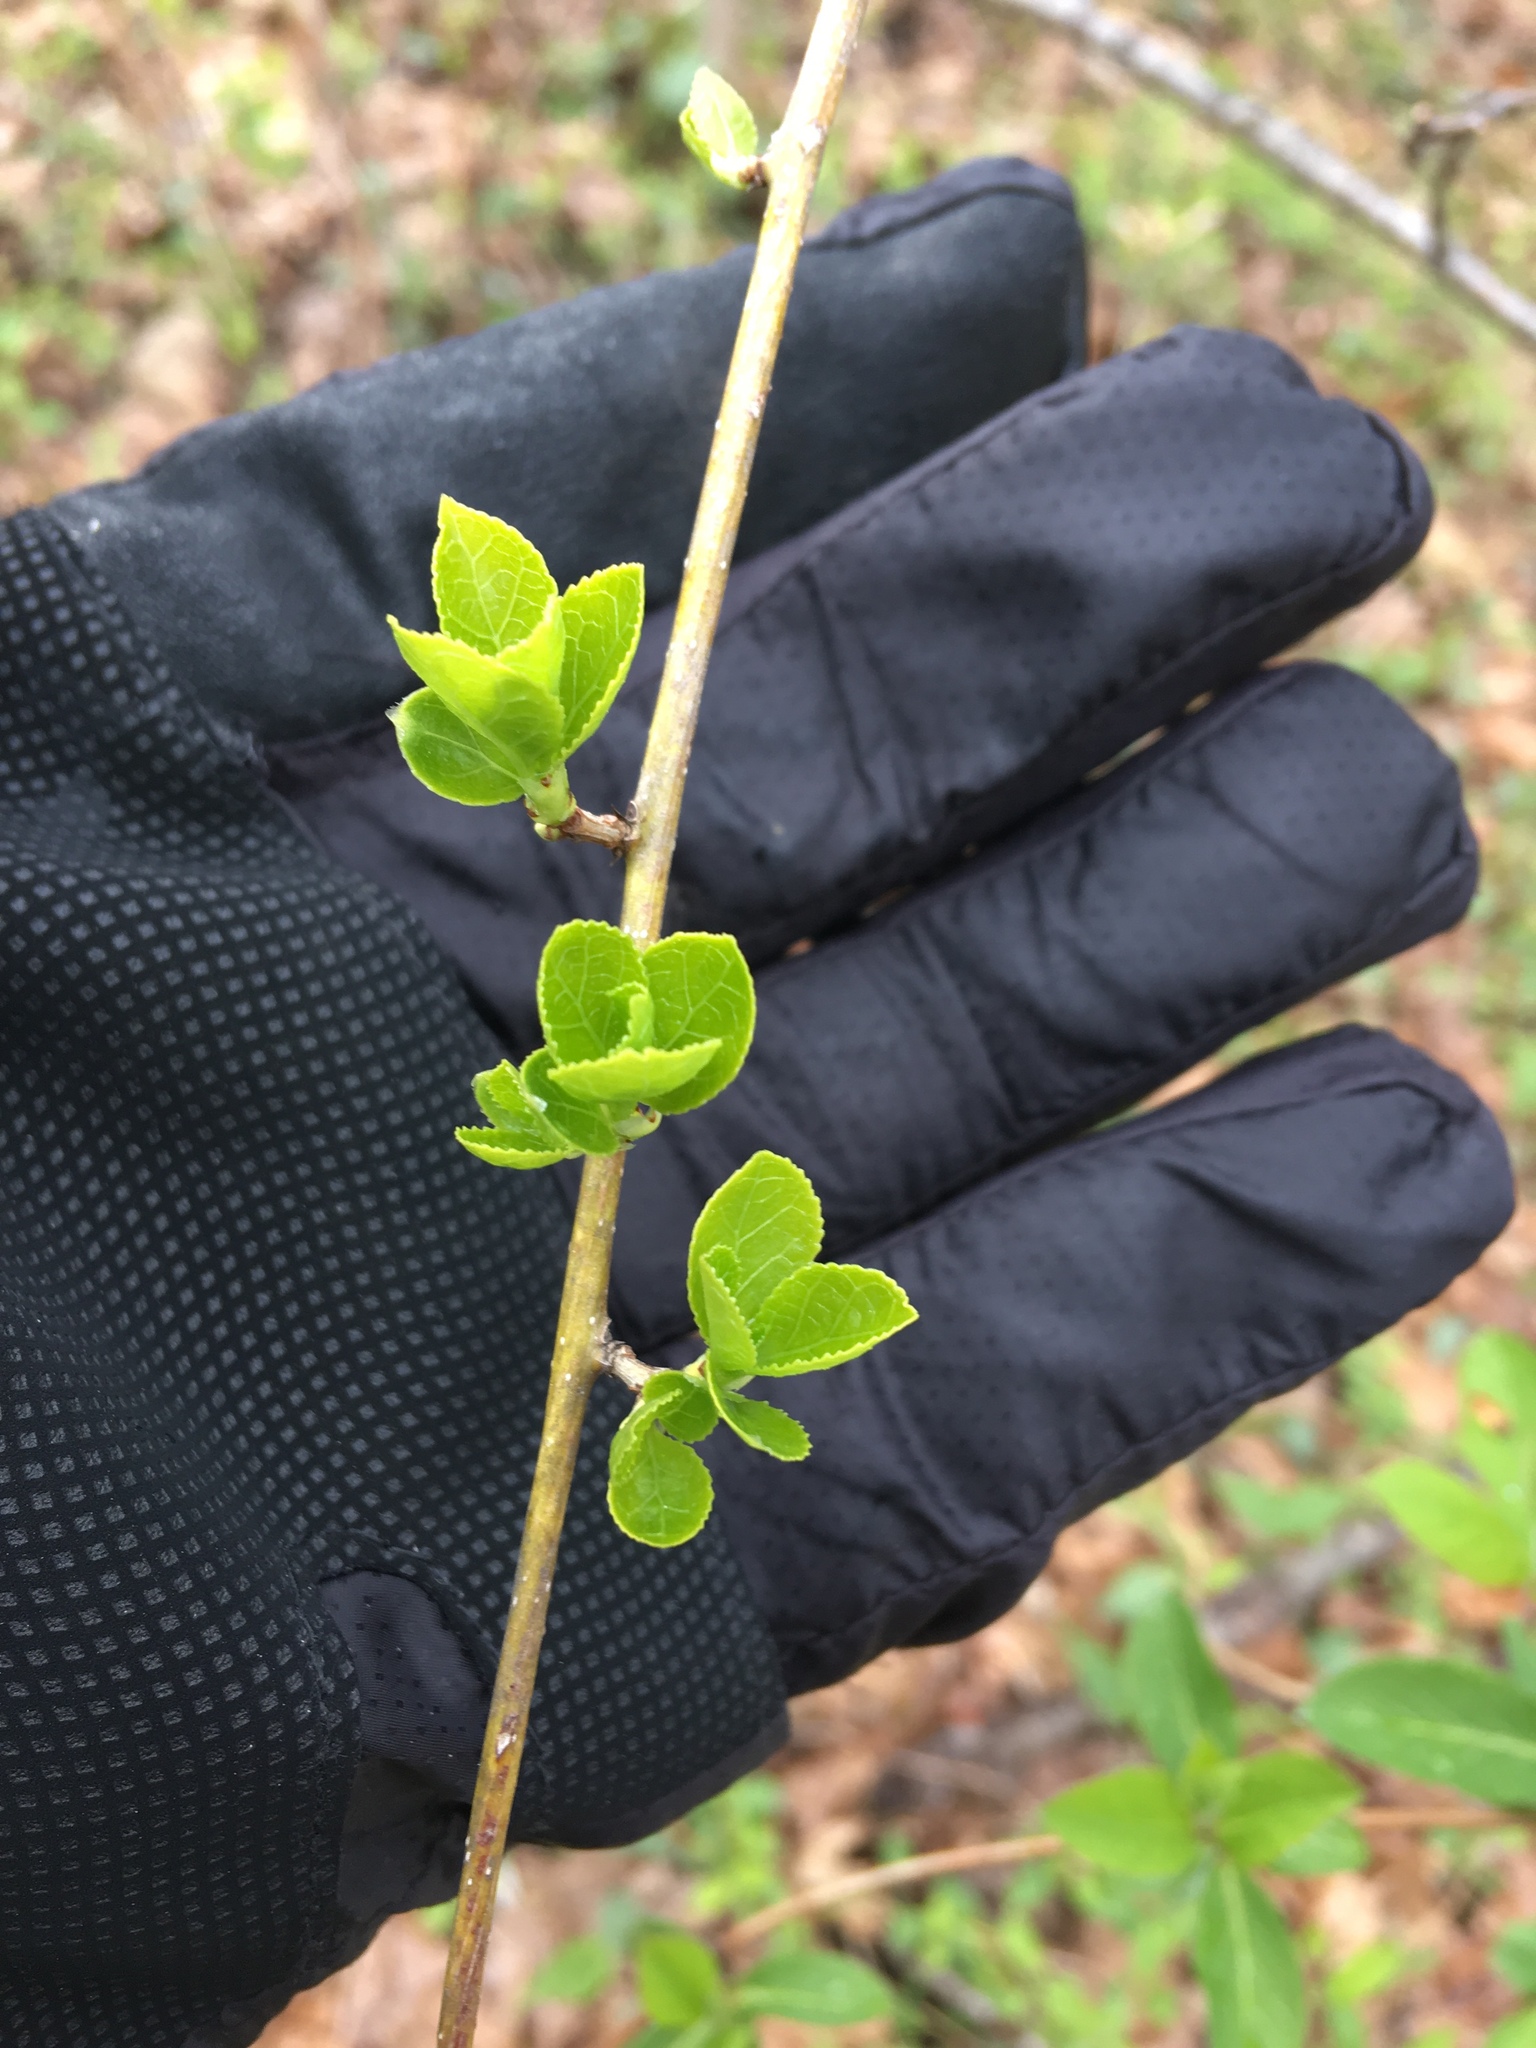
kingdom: Plantae
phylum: Tracheophyta
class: Magnoliopsida
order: Celastrales
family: Celastraceae
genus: Celastrus
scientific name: Celastrus orbiculatus
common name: Oriental bittersweet
